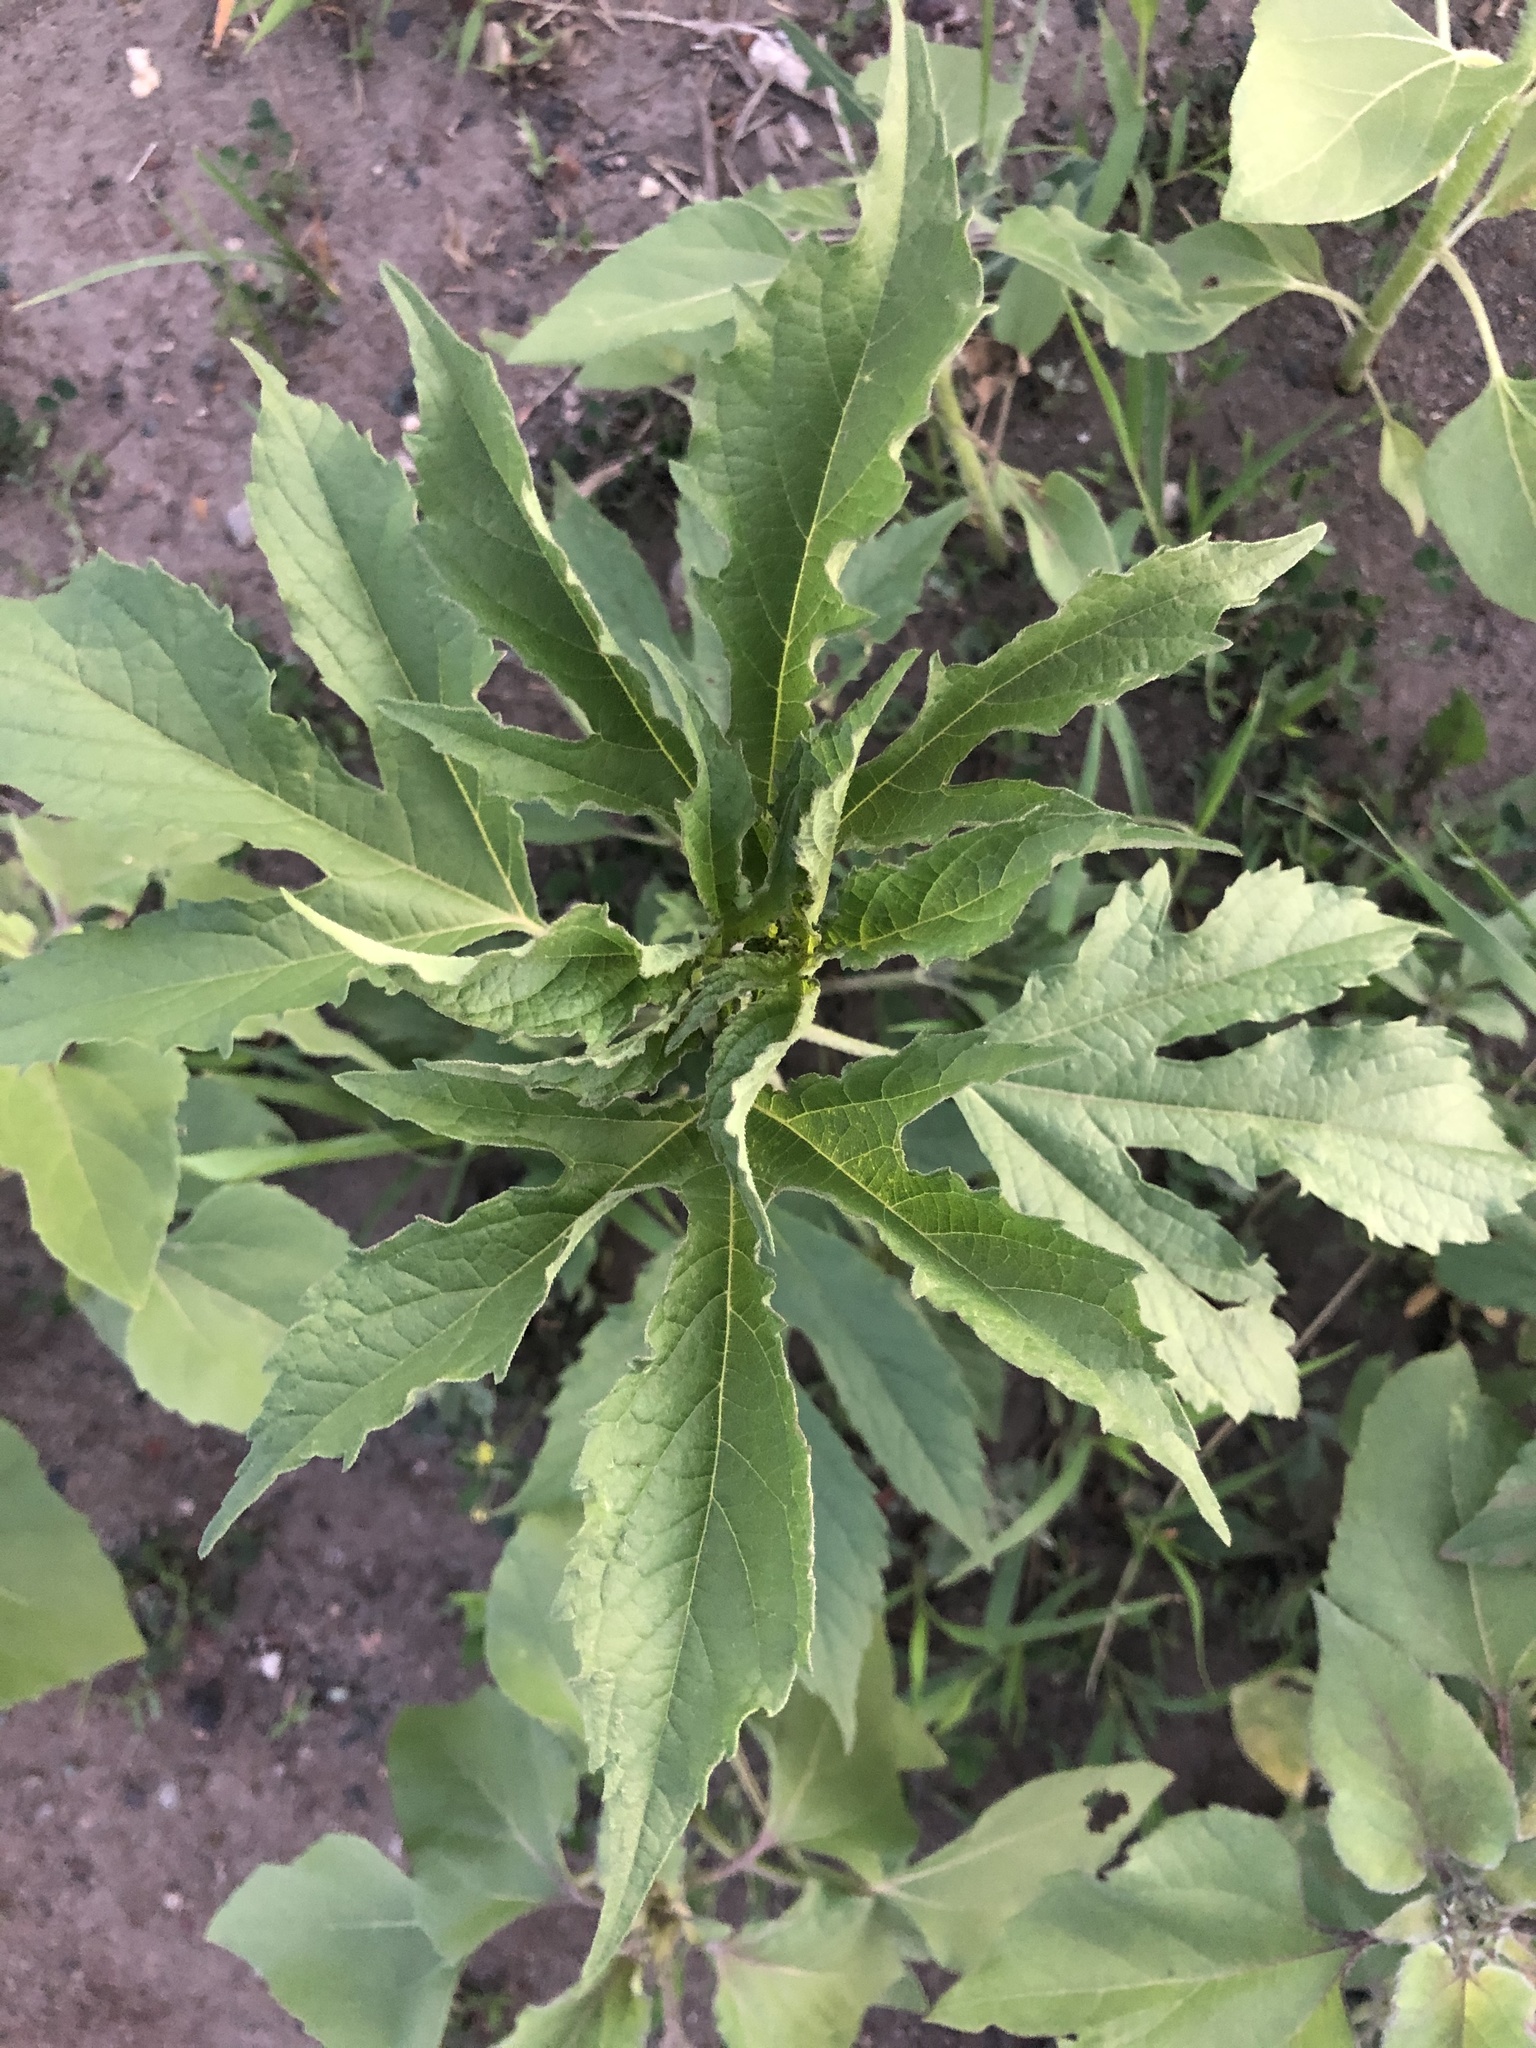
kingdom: Plantae
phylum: Tracheophyta
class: Magnoliopsida
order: Asterales
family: Asteraceae
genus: Ambrosia
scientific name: Ambrosia trifida
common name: Giant ragweed
